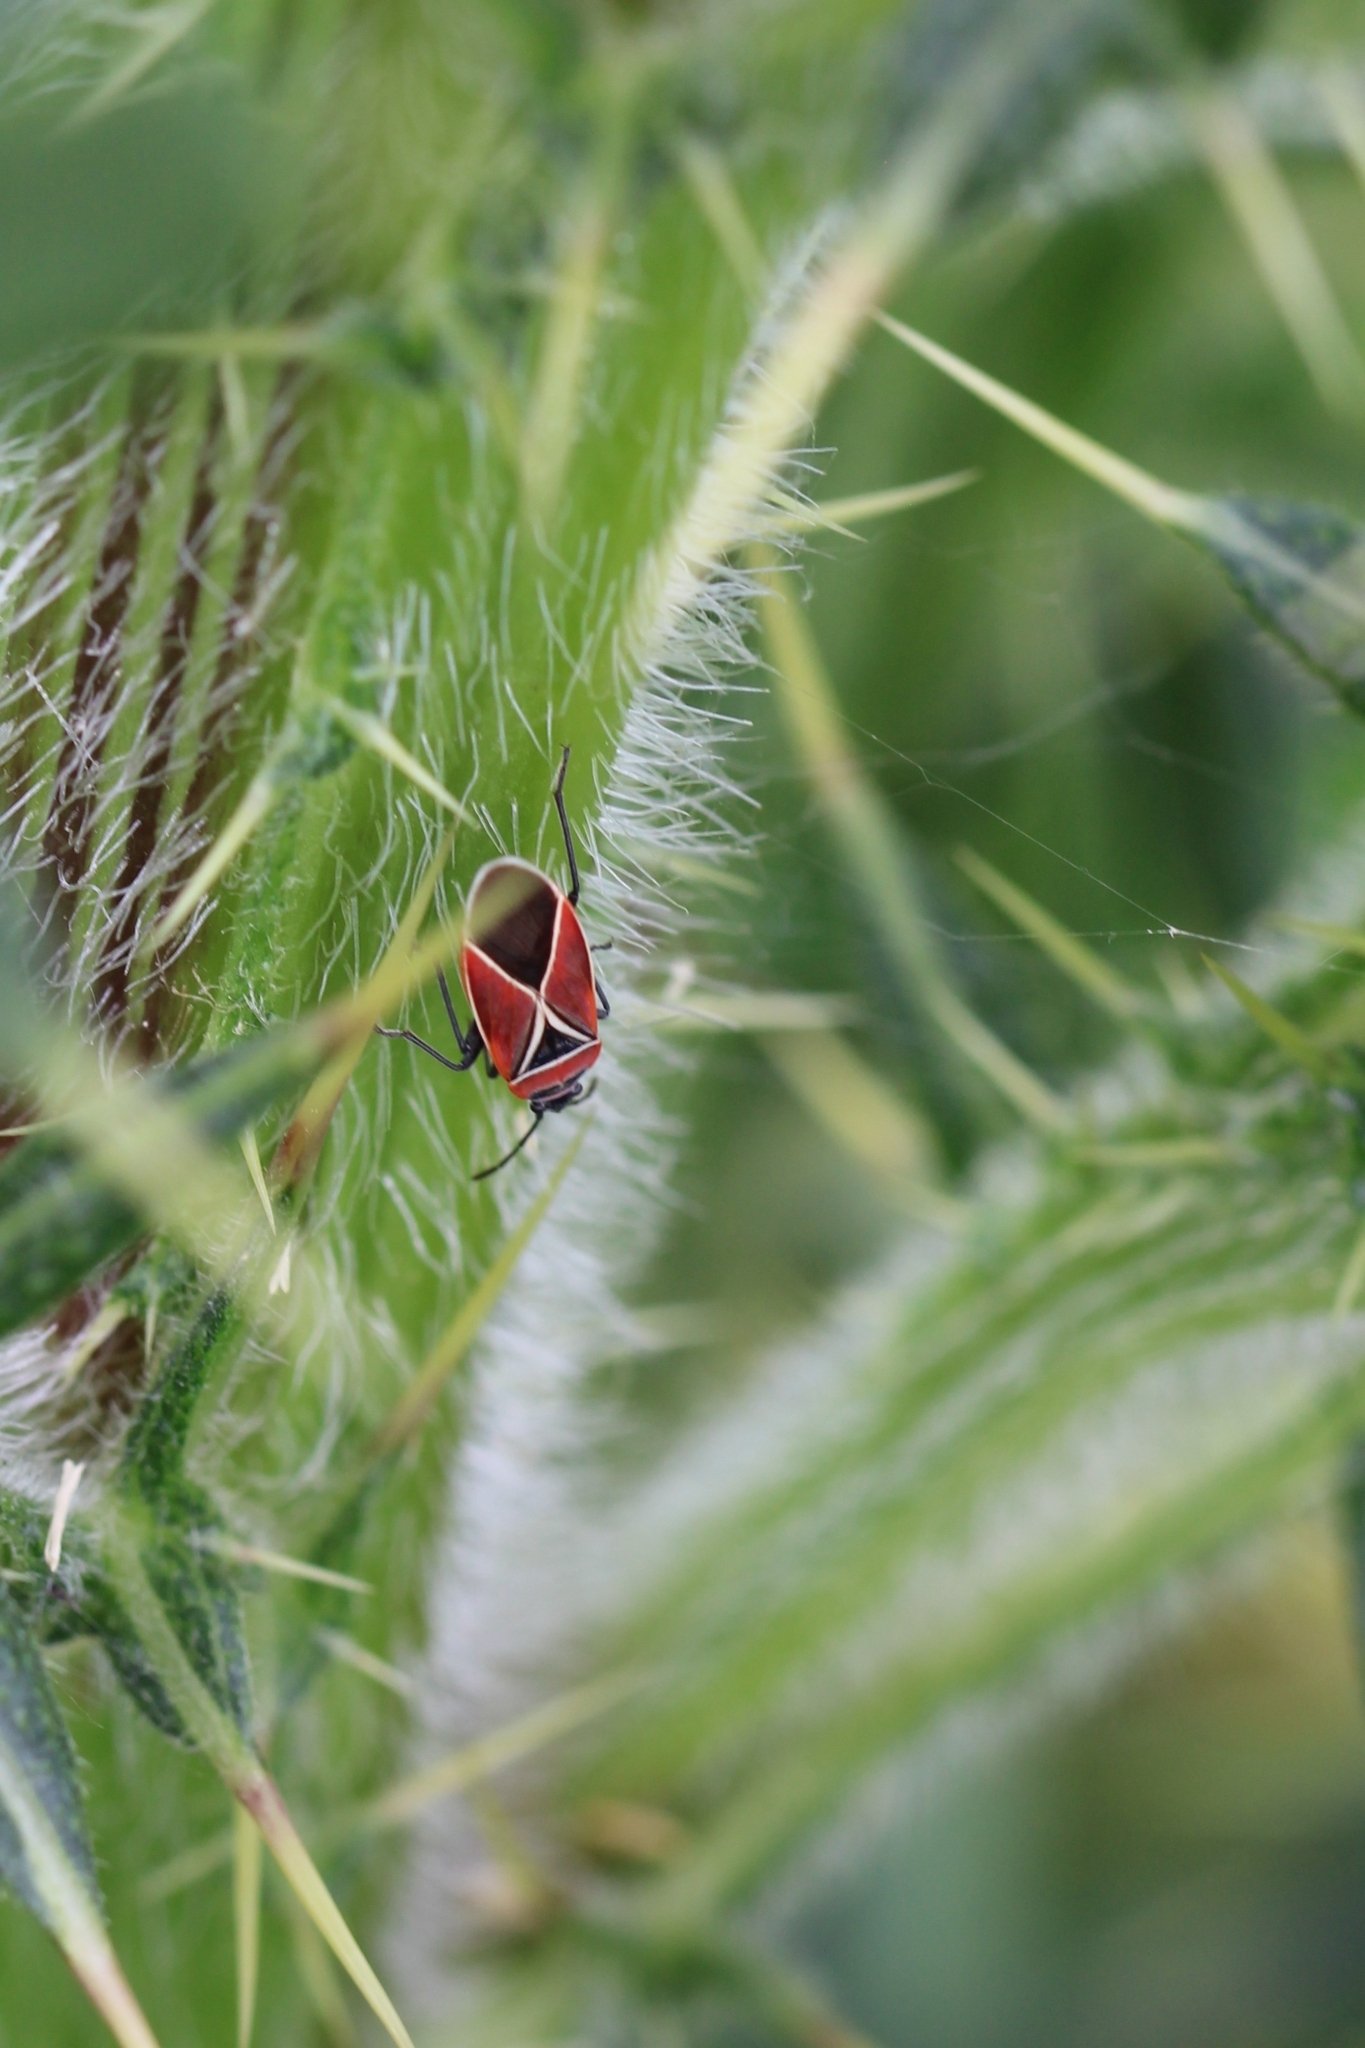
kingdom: Animalia
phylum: Arthropoda
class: Insecta
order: Hemiptera
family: Lygaeidae
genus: Neacoryphus
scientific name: Neacoryphus bicrucis
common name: Lygaeid bug
